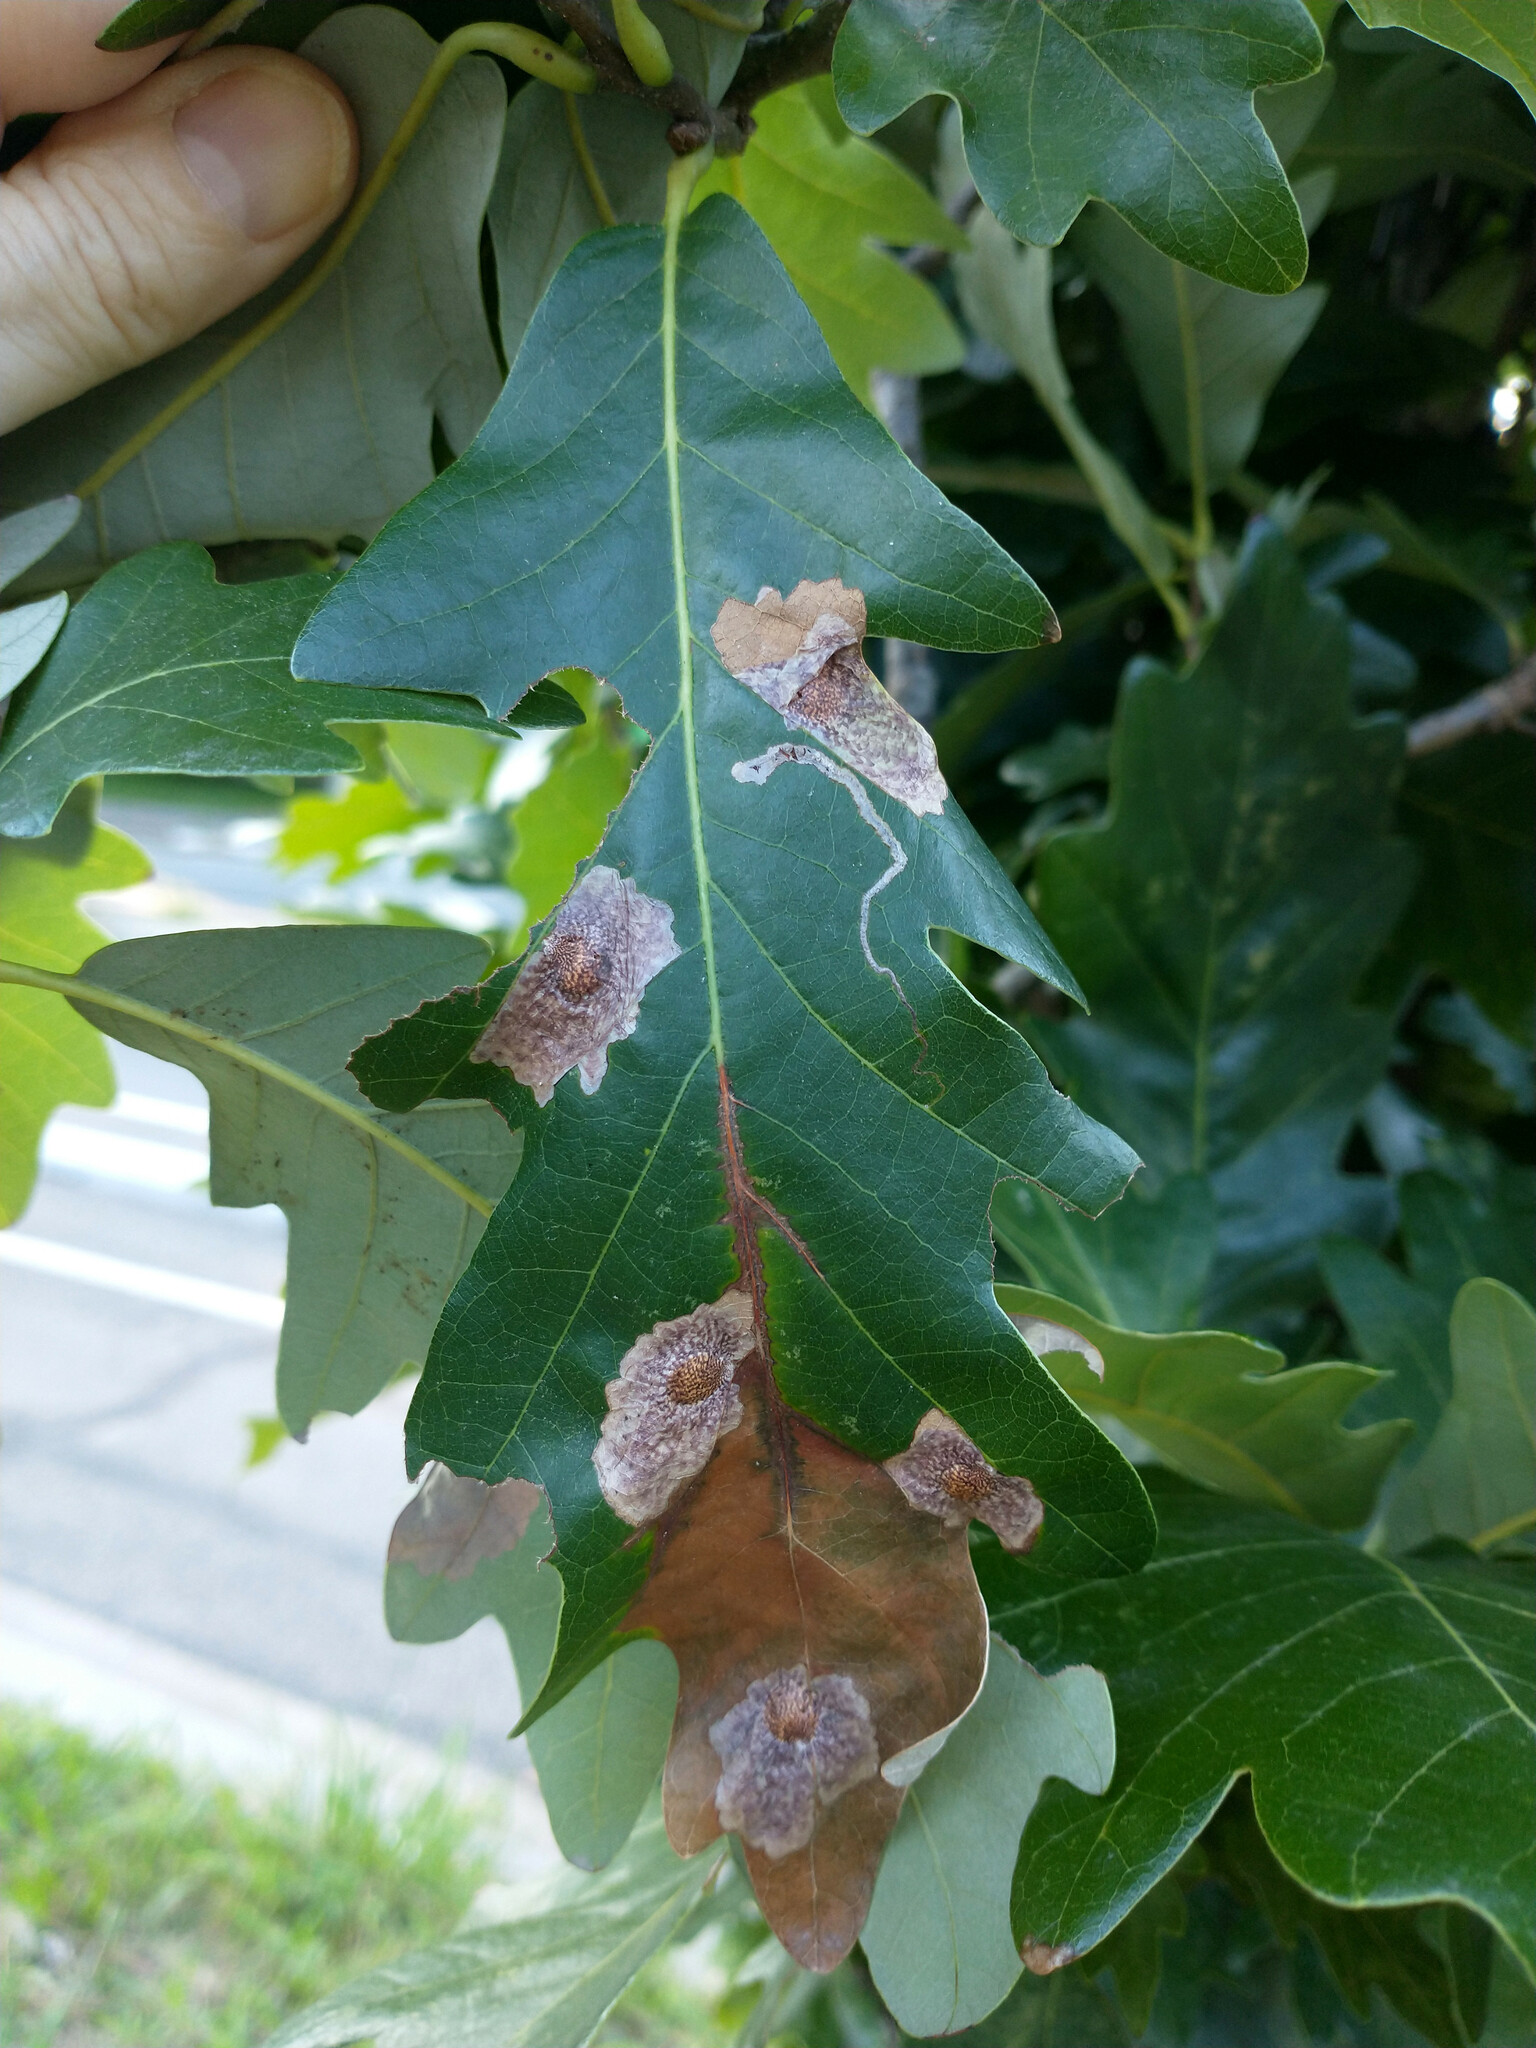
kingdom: Animalia
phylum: Arthropoda
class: Insecta
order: Lepidoptera
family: Tischeriidae
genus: Tischeria
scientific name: Tischeria quercitella
